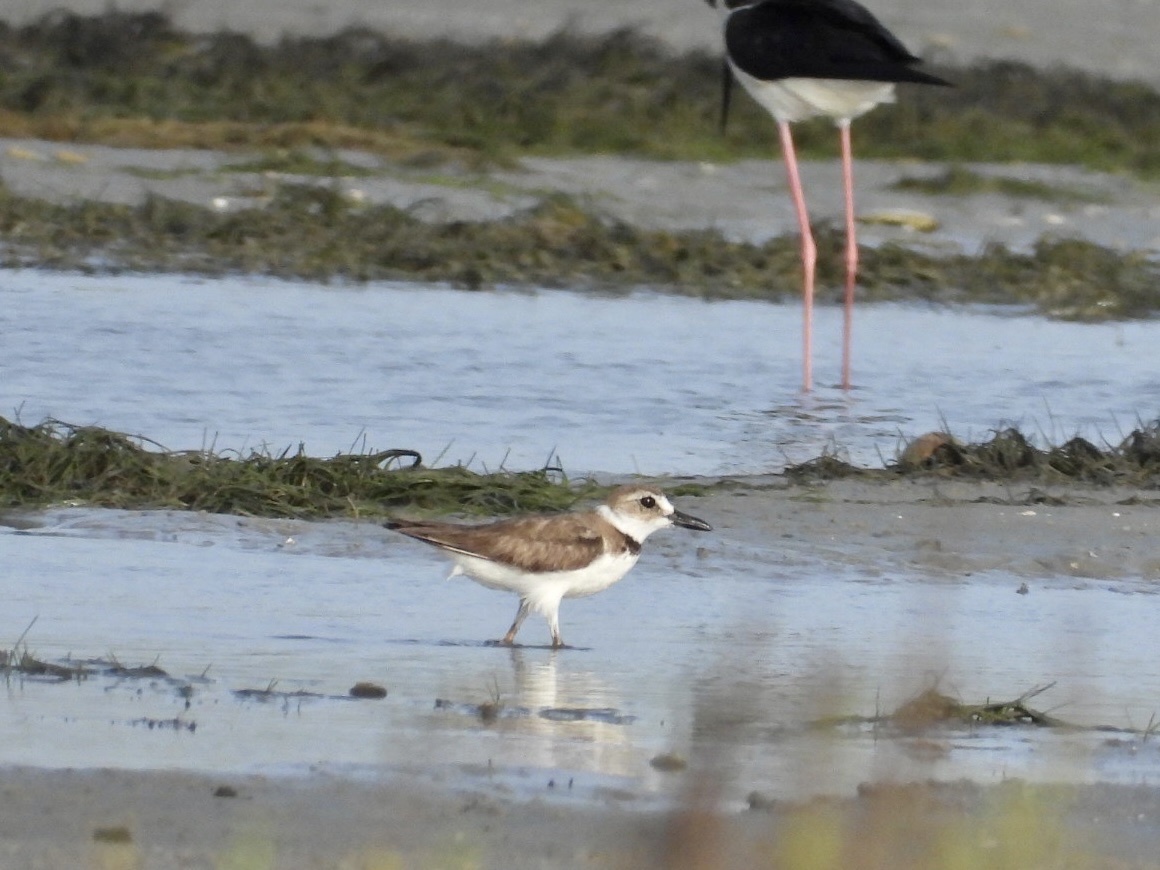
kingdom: Animalia
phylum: Chordata
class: Aves
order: Charadriiformes
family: Charadriidae
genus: Anarhynchus
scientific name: Anarhynchus
